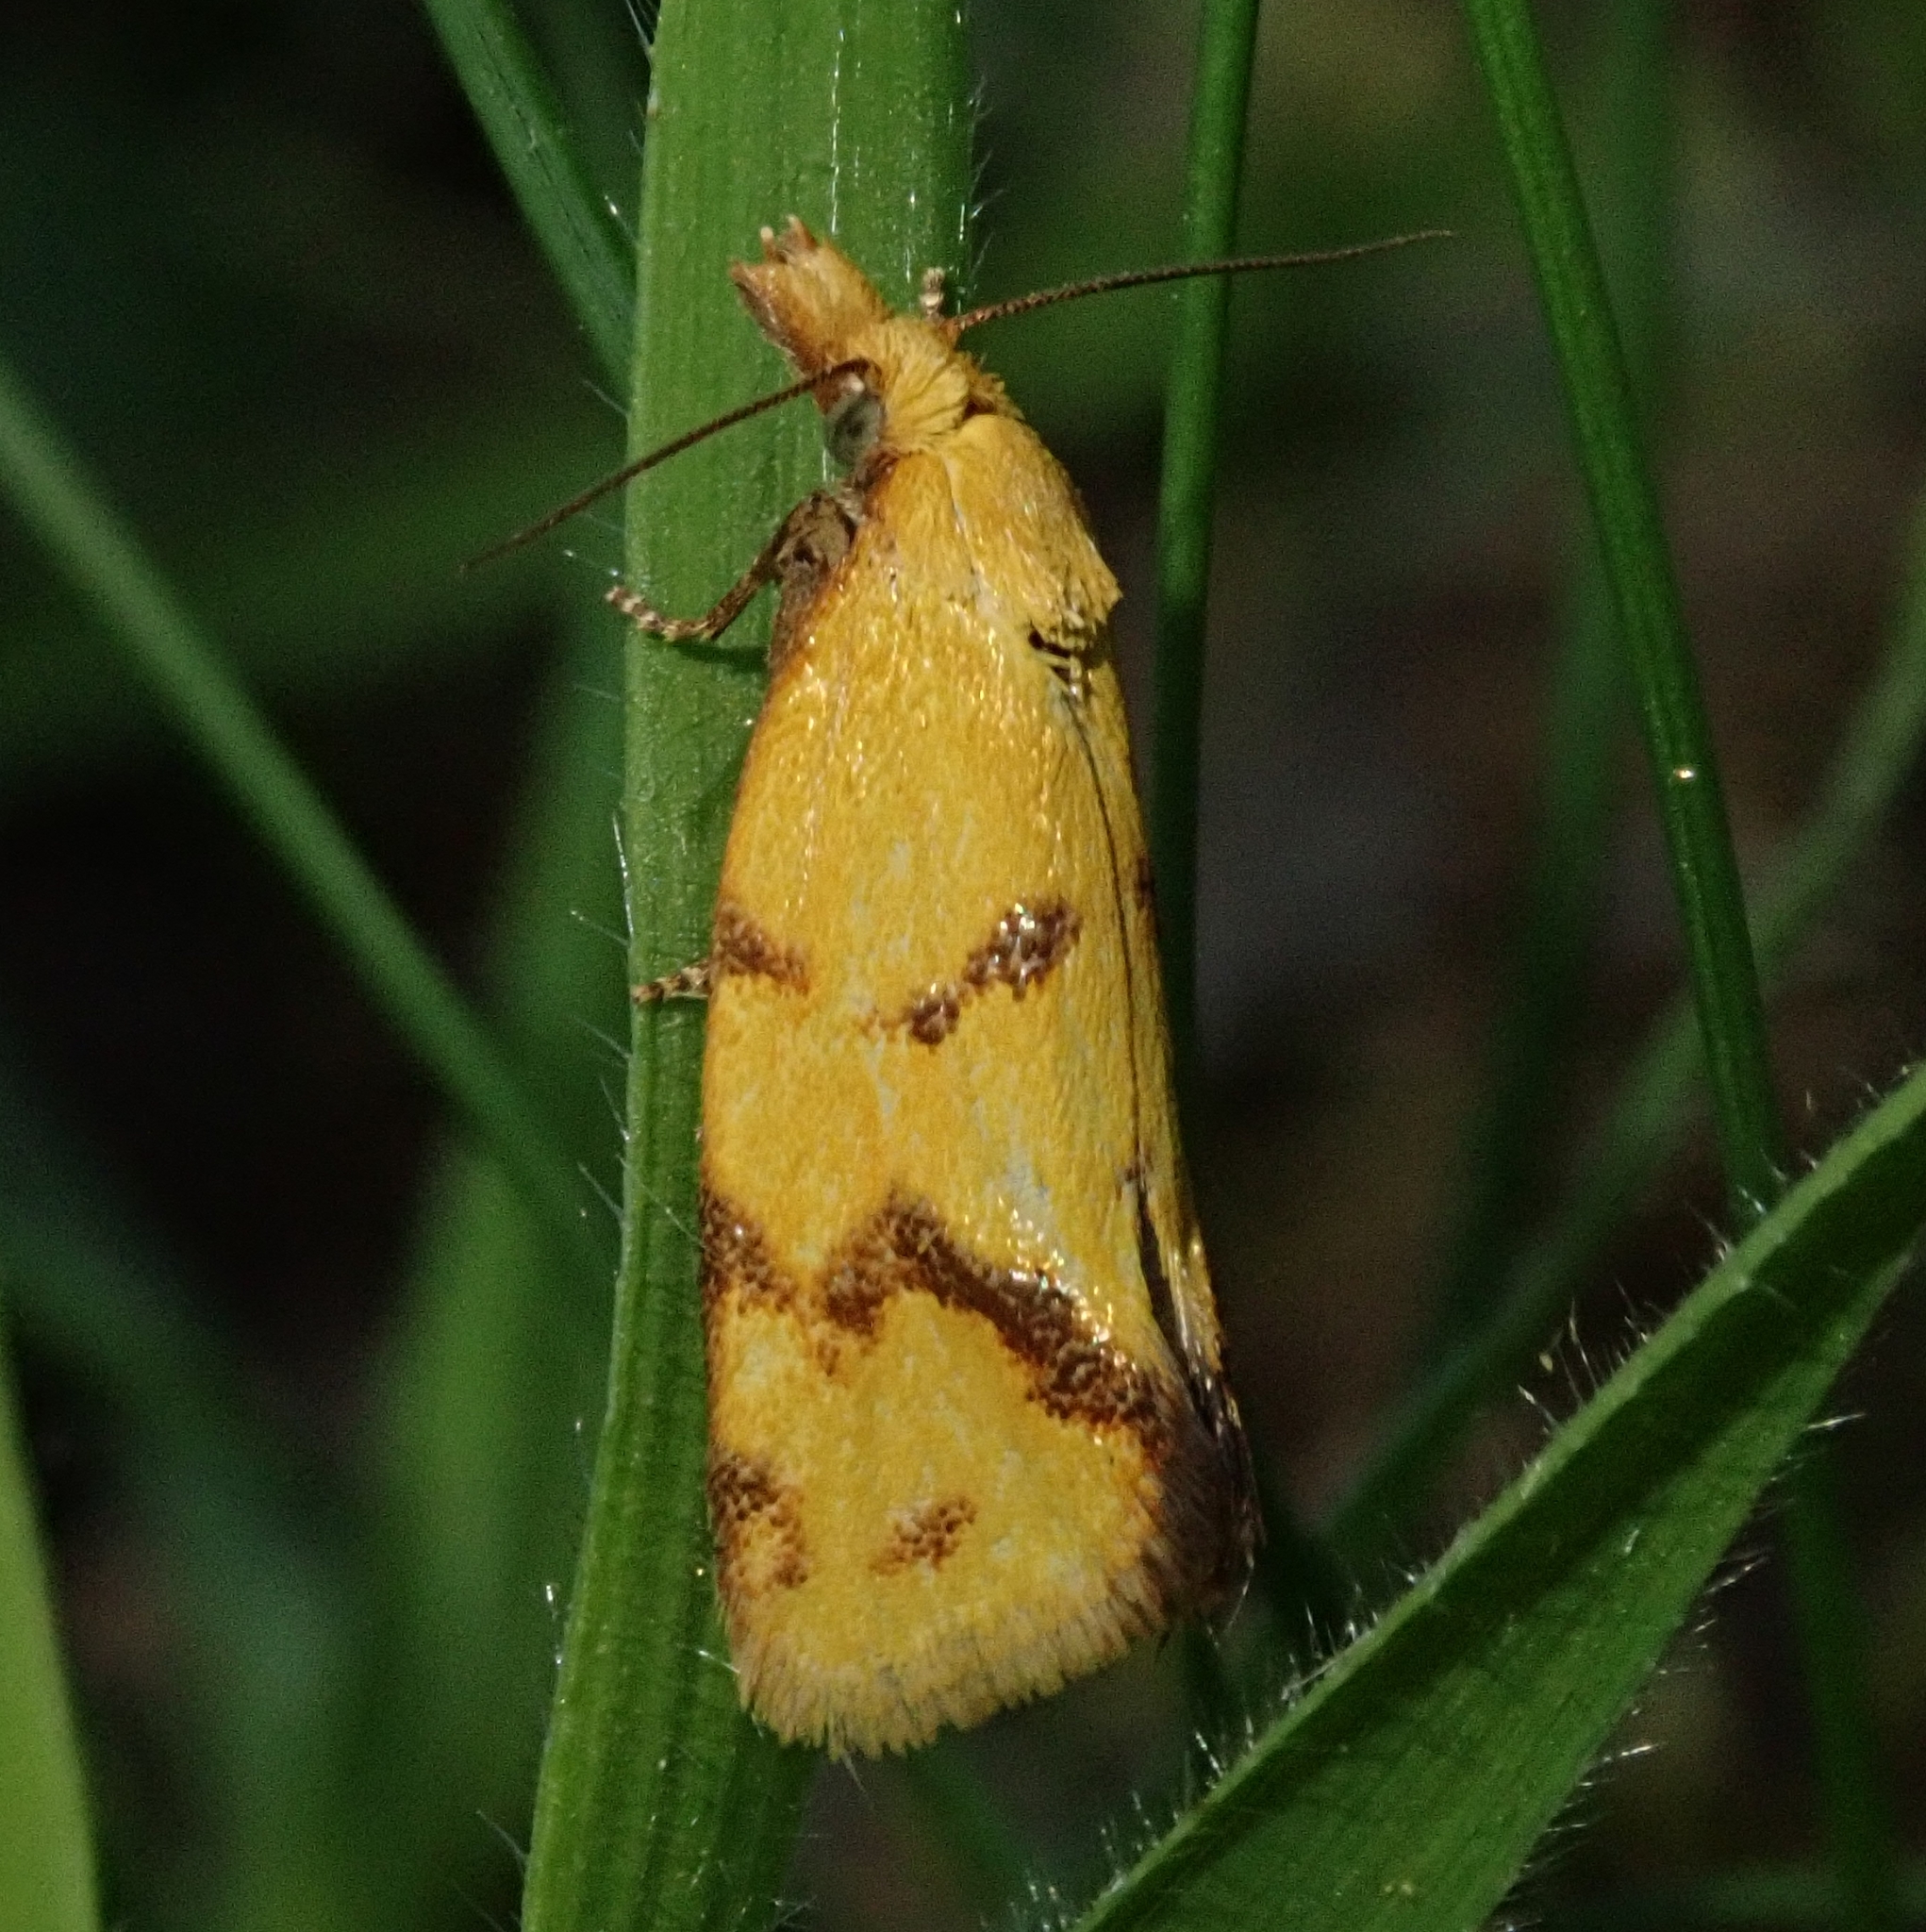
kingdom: Animalia
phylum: Arthropoda
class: Insecta
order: Lepidoptera
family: Tortricidae
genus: Agapeta
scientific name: Agapeta hamana
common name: Common yellow conch
